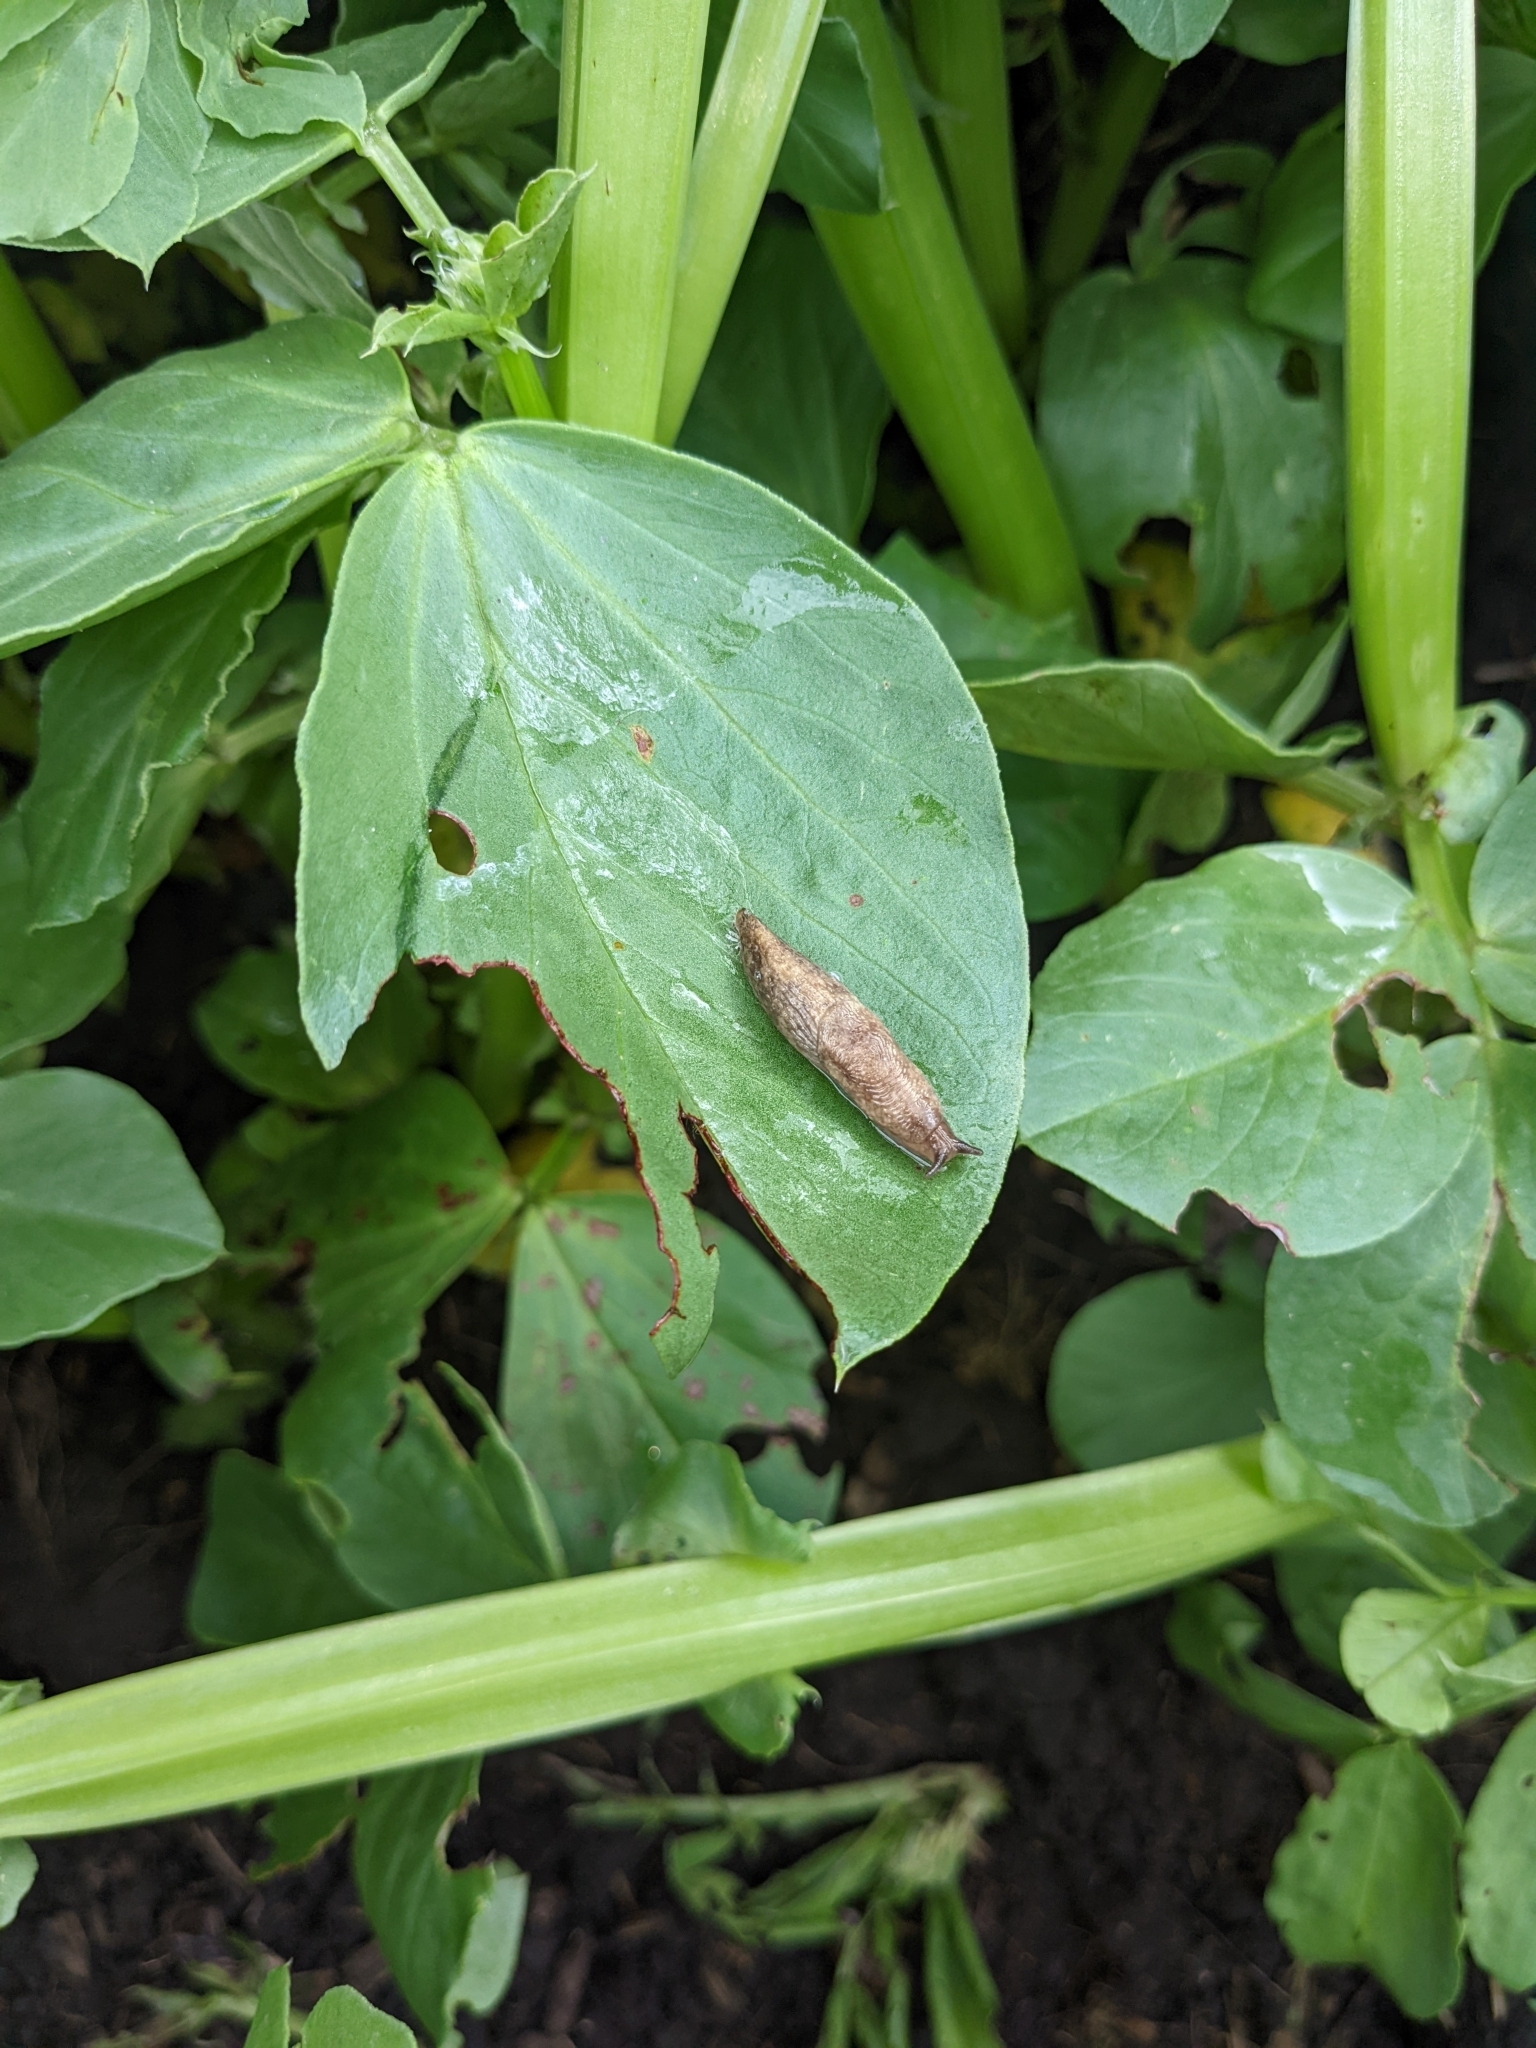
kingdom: Animalia
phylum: Mollusca
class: Gastropoda
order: Stylommatophora
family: Agriolimacidae
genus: Deroceras
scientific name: Deroceras reticulatum
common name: Gray field slug
